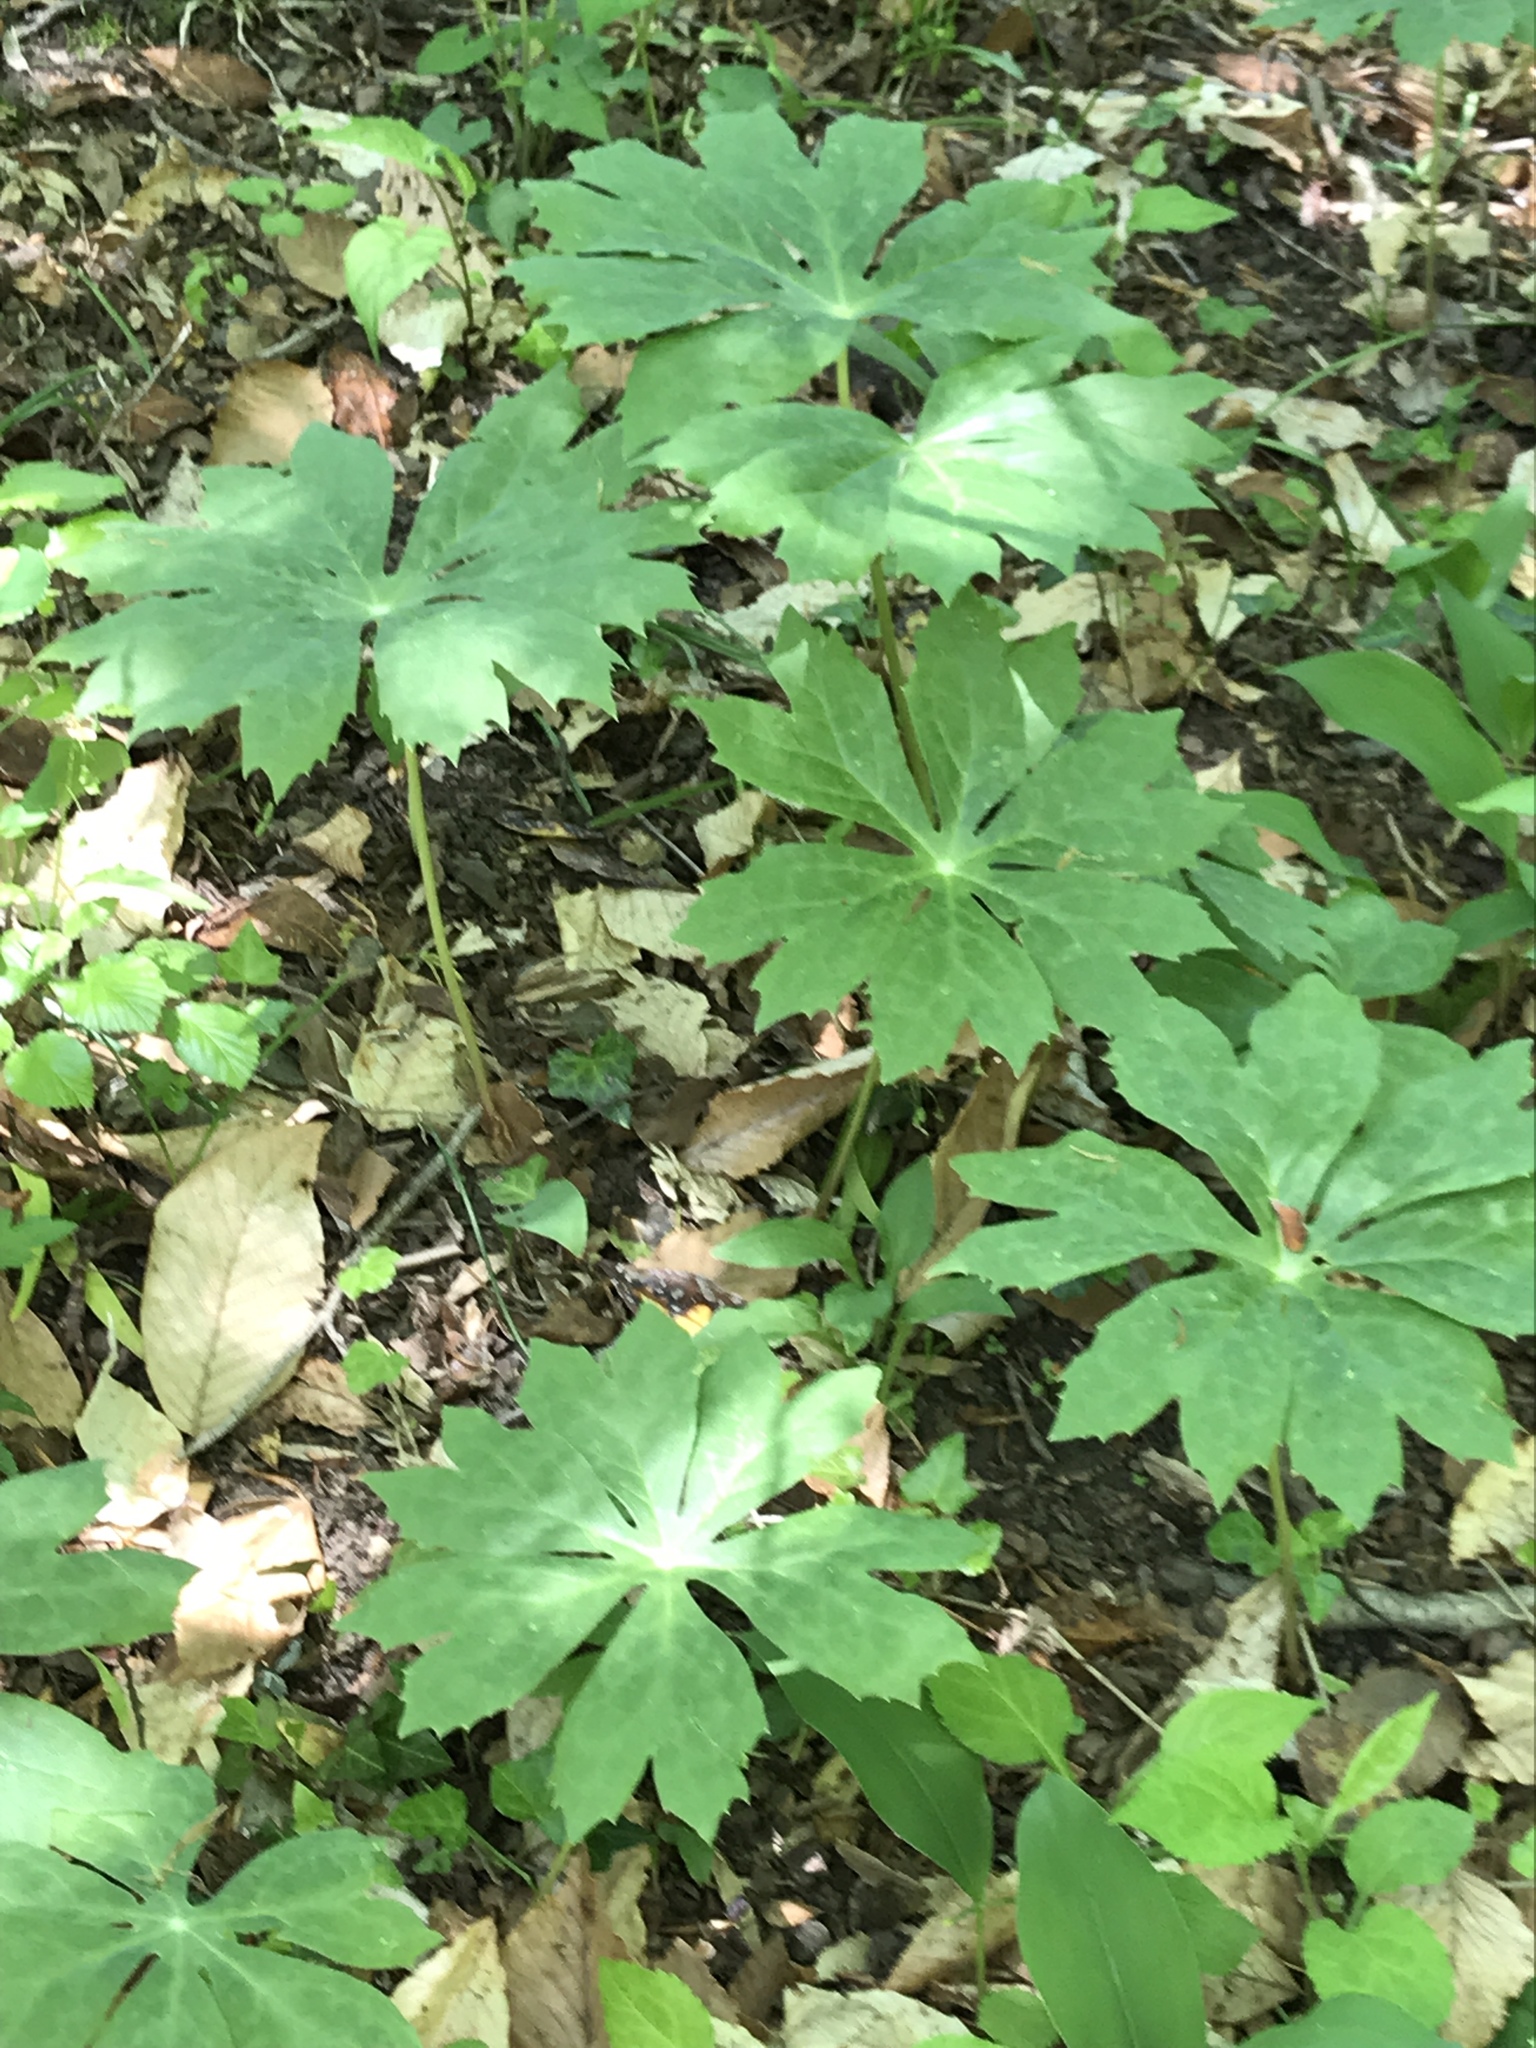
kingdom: Plantae
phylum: Tracheophyta
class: Magnoliopsida
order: Ranunculales
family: Berberidaceae
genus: Podophyllum
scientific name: Podophyllum peltatum
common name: Wild mandrake
